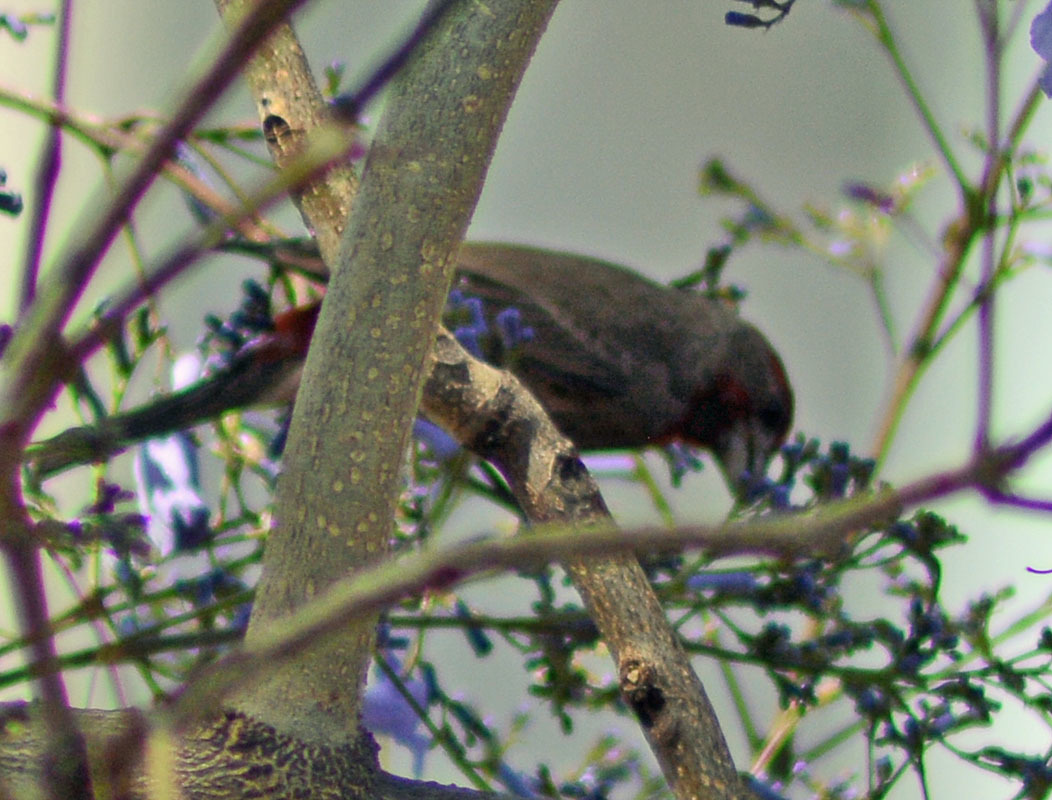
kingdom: Animalia
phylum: Chordata
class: Aves
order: Passeriformes
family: Fringillidae
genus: Haemorhous
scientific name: Haemorhous mexicanus
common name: House finch
